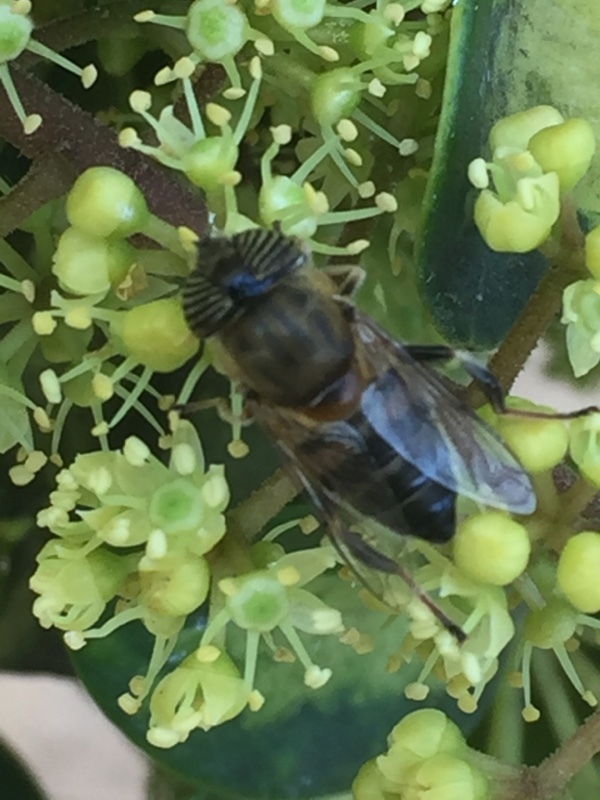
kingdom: Animalia
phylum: Arthropoda
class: Insecta
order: Diptera
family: Syrphidae
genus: Eristalinus
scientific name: Eristalinus taeniops
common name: Syrphid fly
